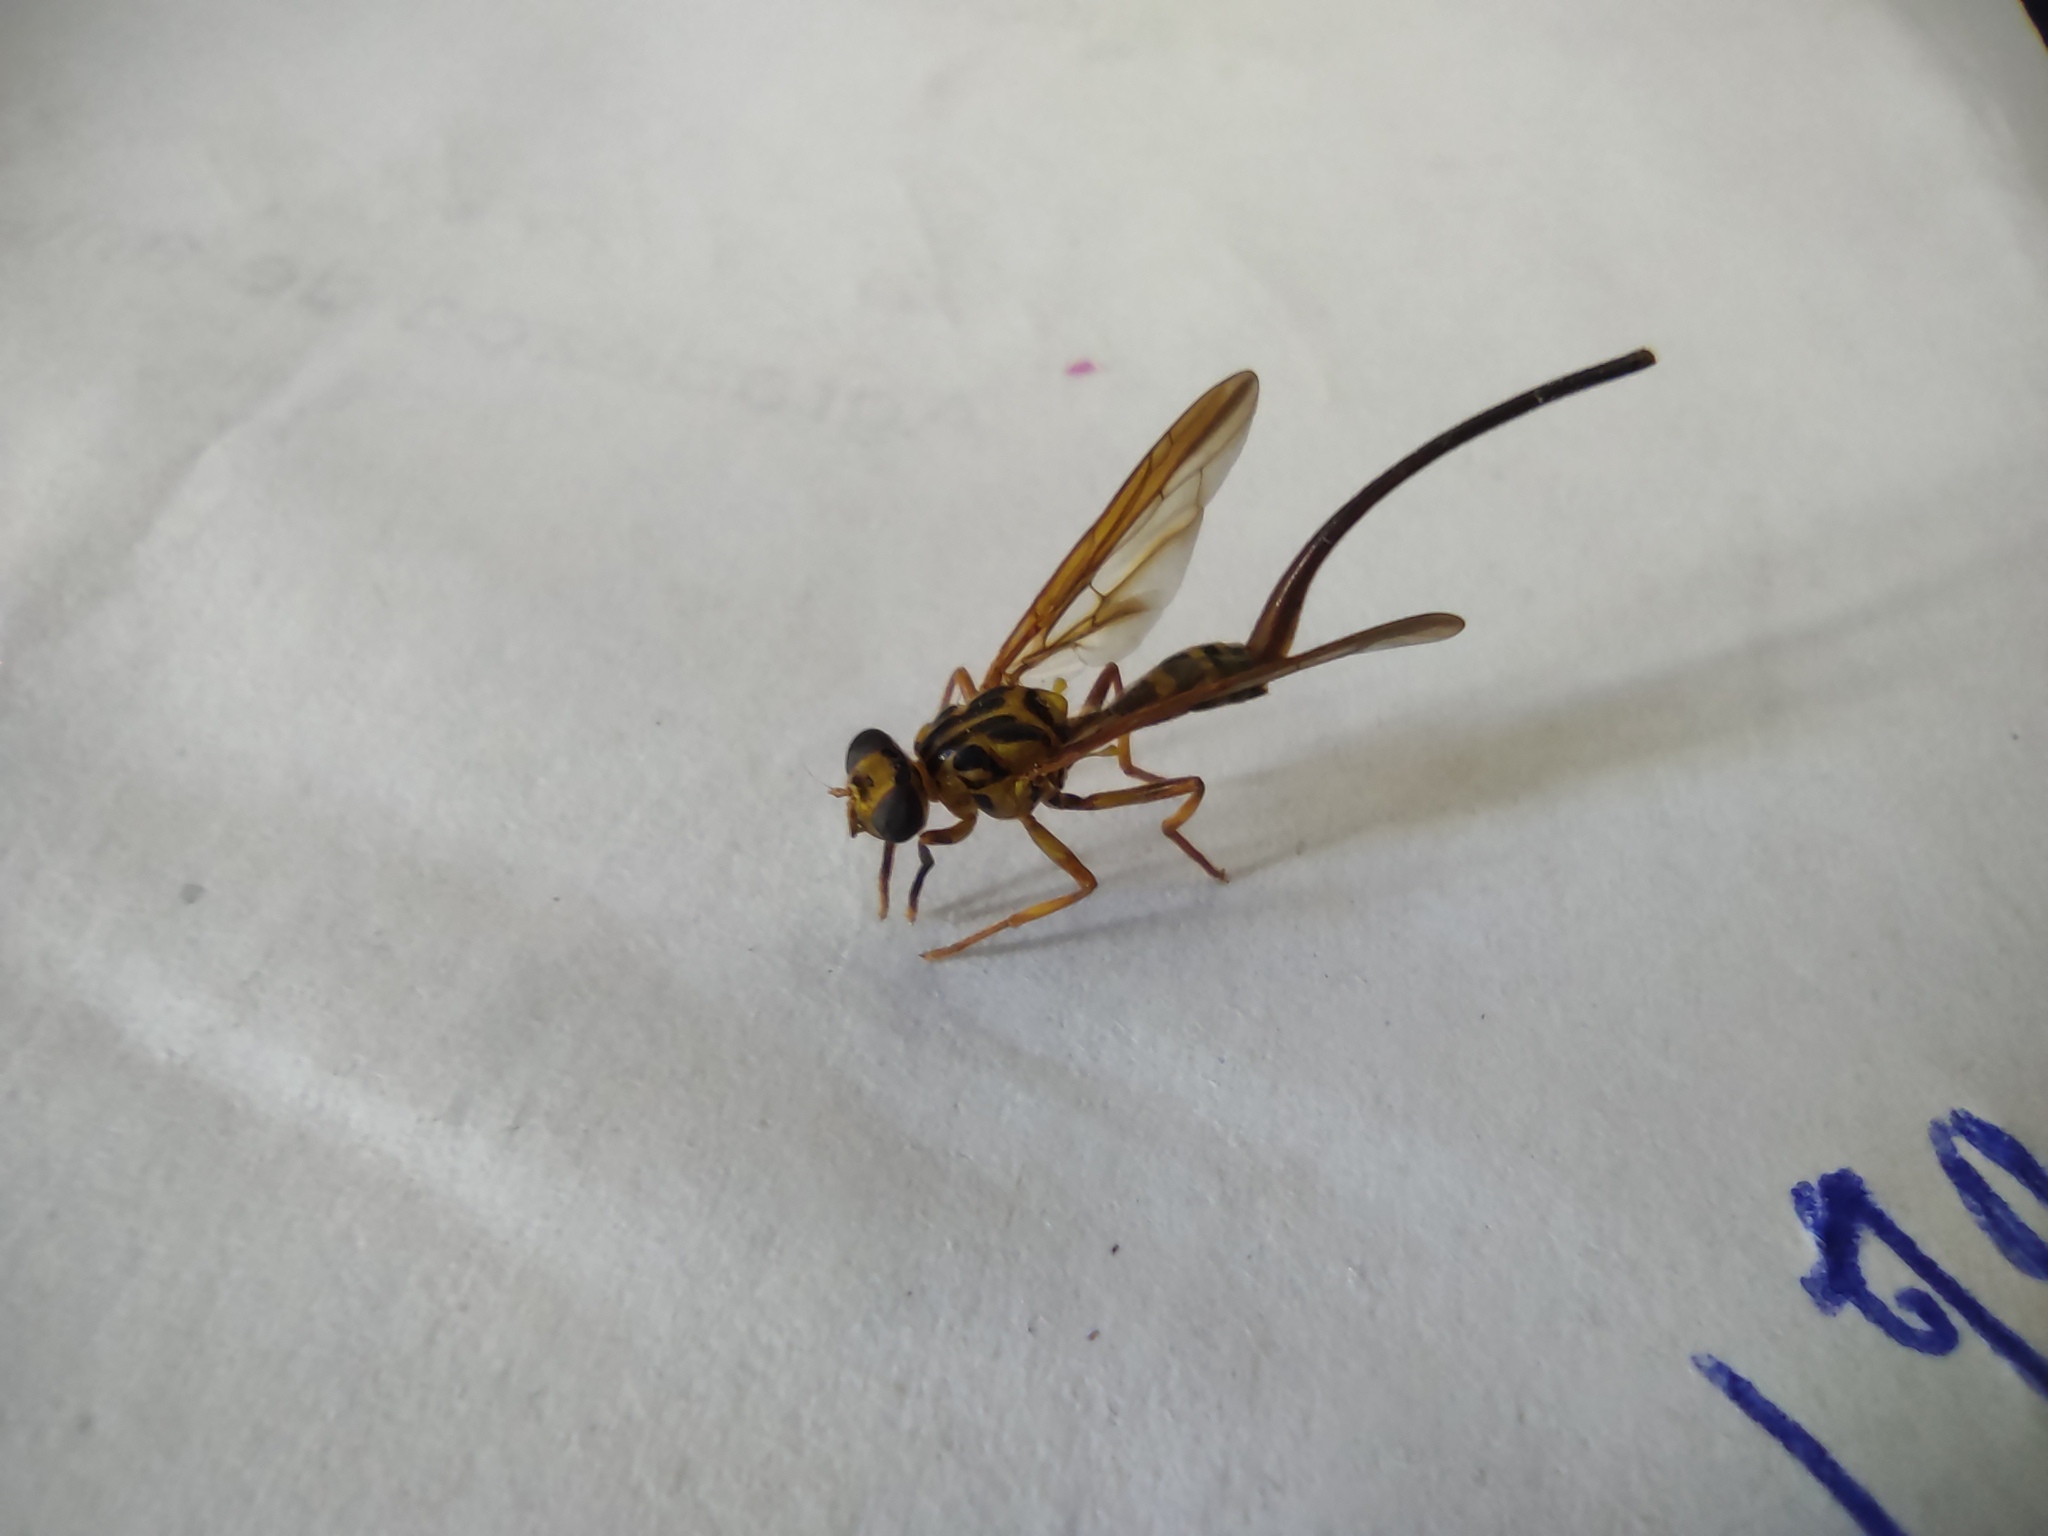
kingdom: Animalia
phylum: Arthropoda
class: Insecta
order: Diptera
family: Tephritidae
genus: Anastrepha
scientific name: Anastrepha curvicauda
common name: Papaya fruit fly
